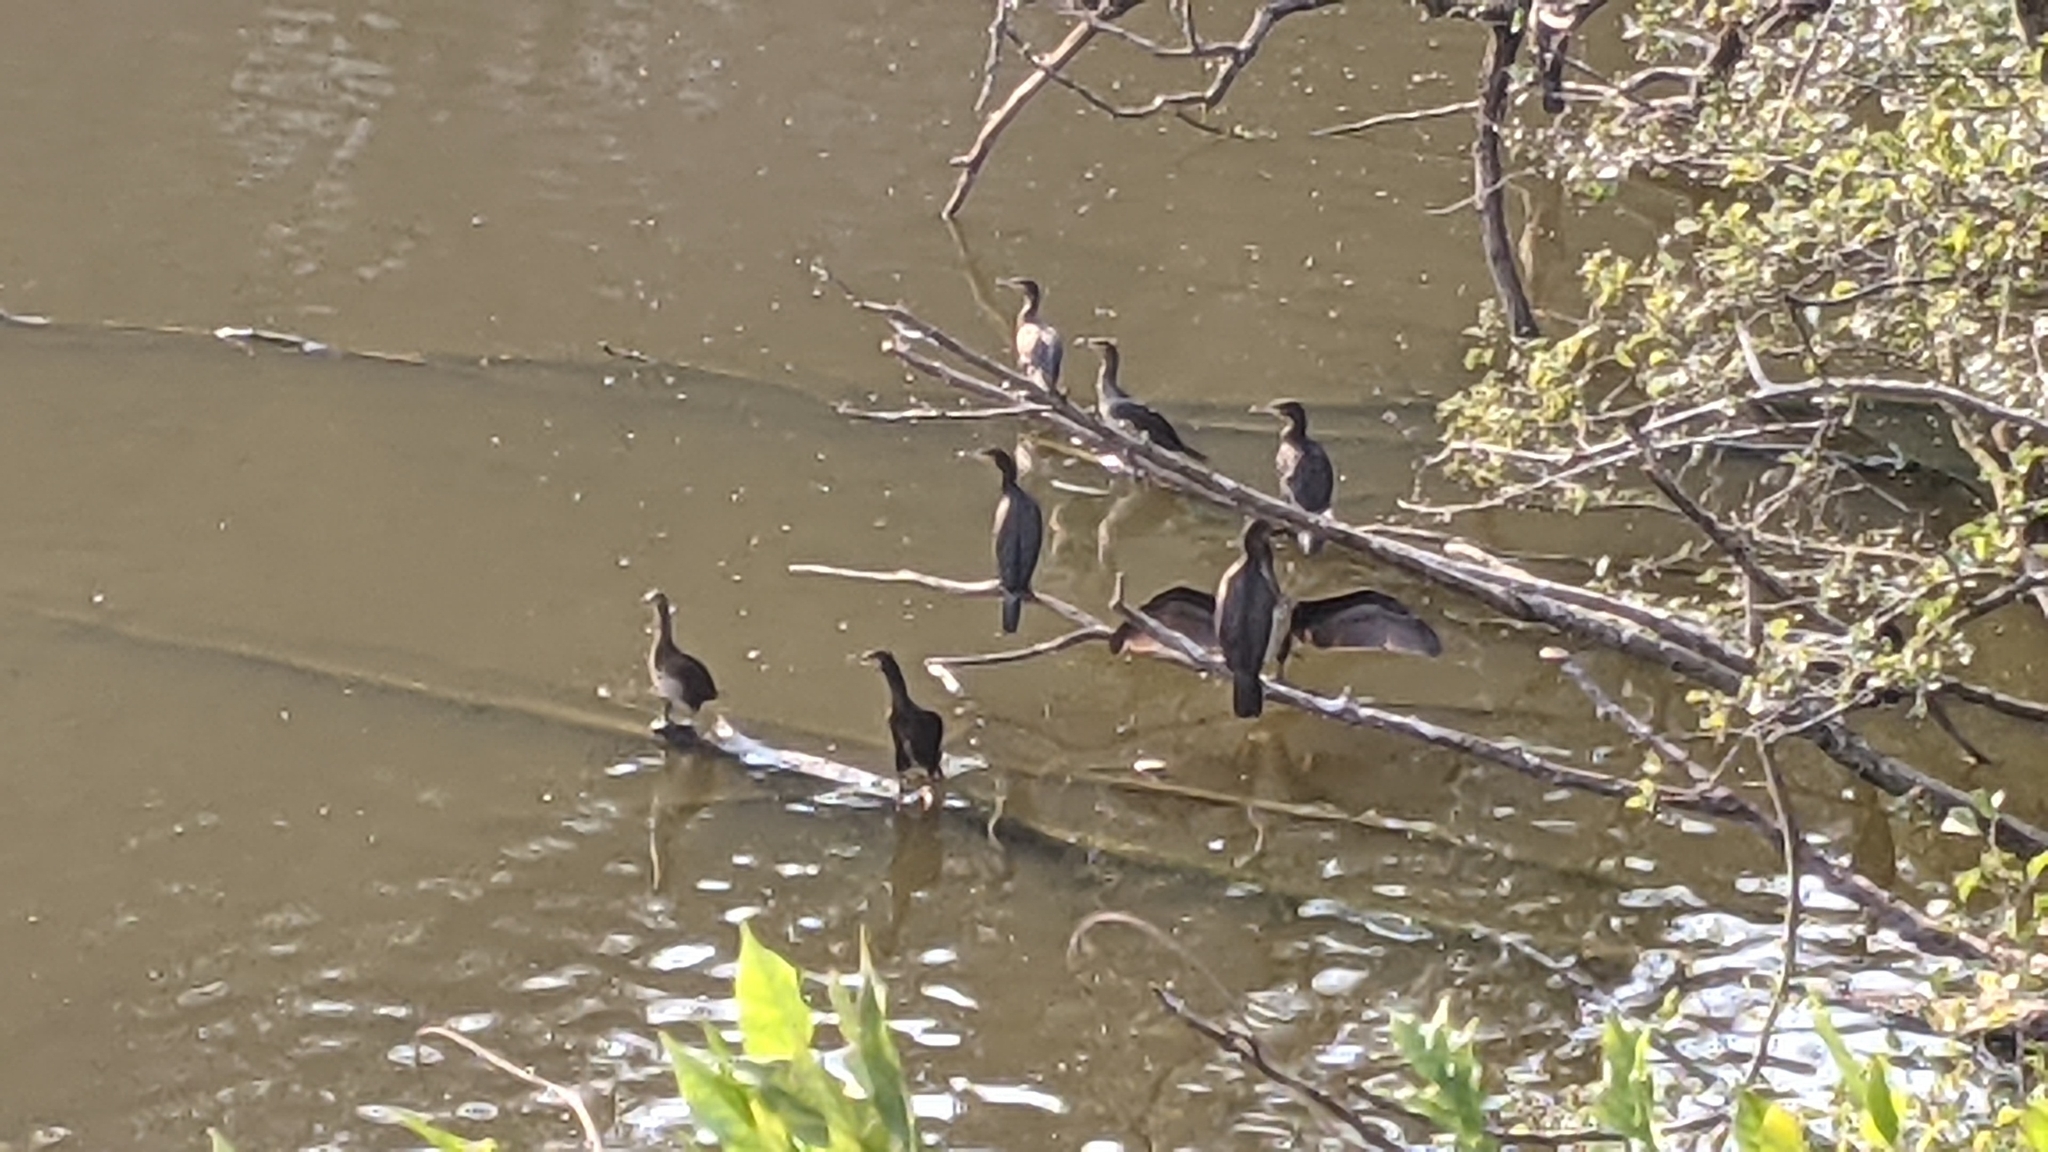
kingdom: Animalia
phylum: Chordata
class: Aves
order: Suliformes
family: Phalacrocoracidae
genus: Phalacrocorax
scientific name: Phalacrocorax carbo
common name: Great cormorant
